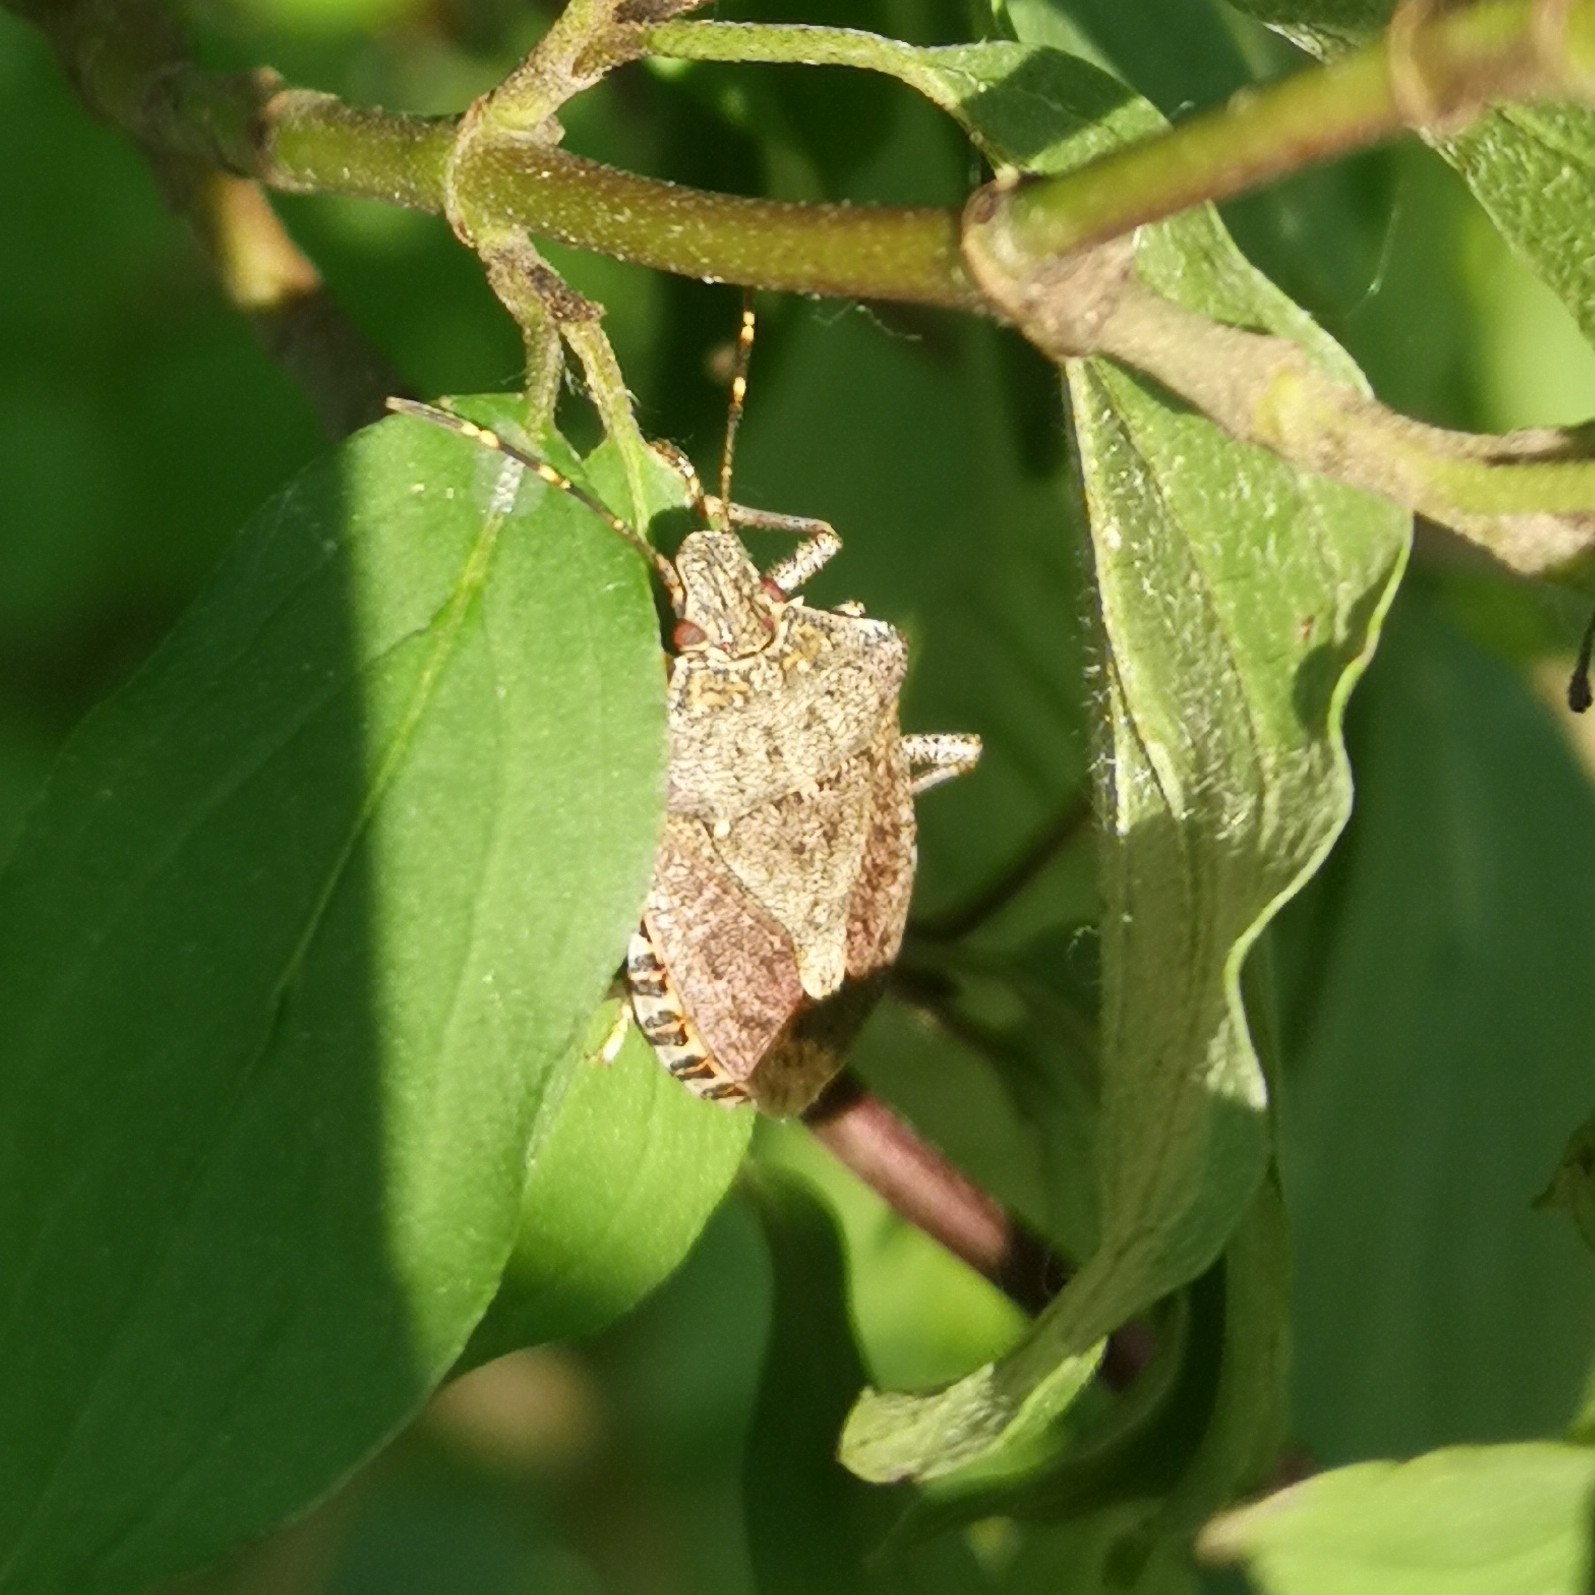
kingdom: Animalia
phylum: Arthropoda
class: Insecta
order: Hemiptera
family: Pentatomidae
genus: Halyomorpha
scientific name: Halyomorpha halys
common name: Brown marmorated stink bug
